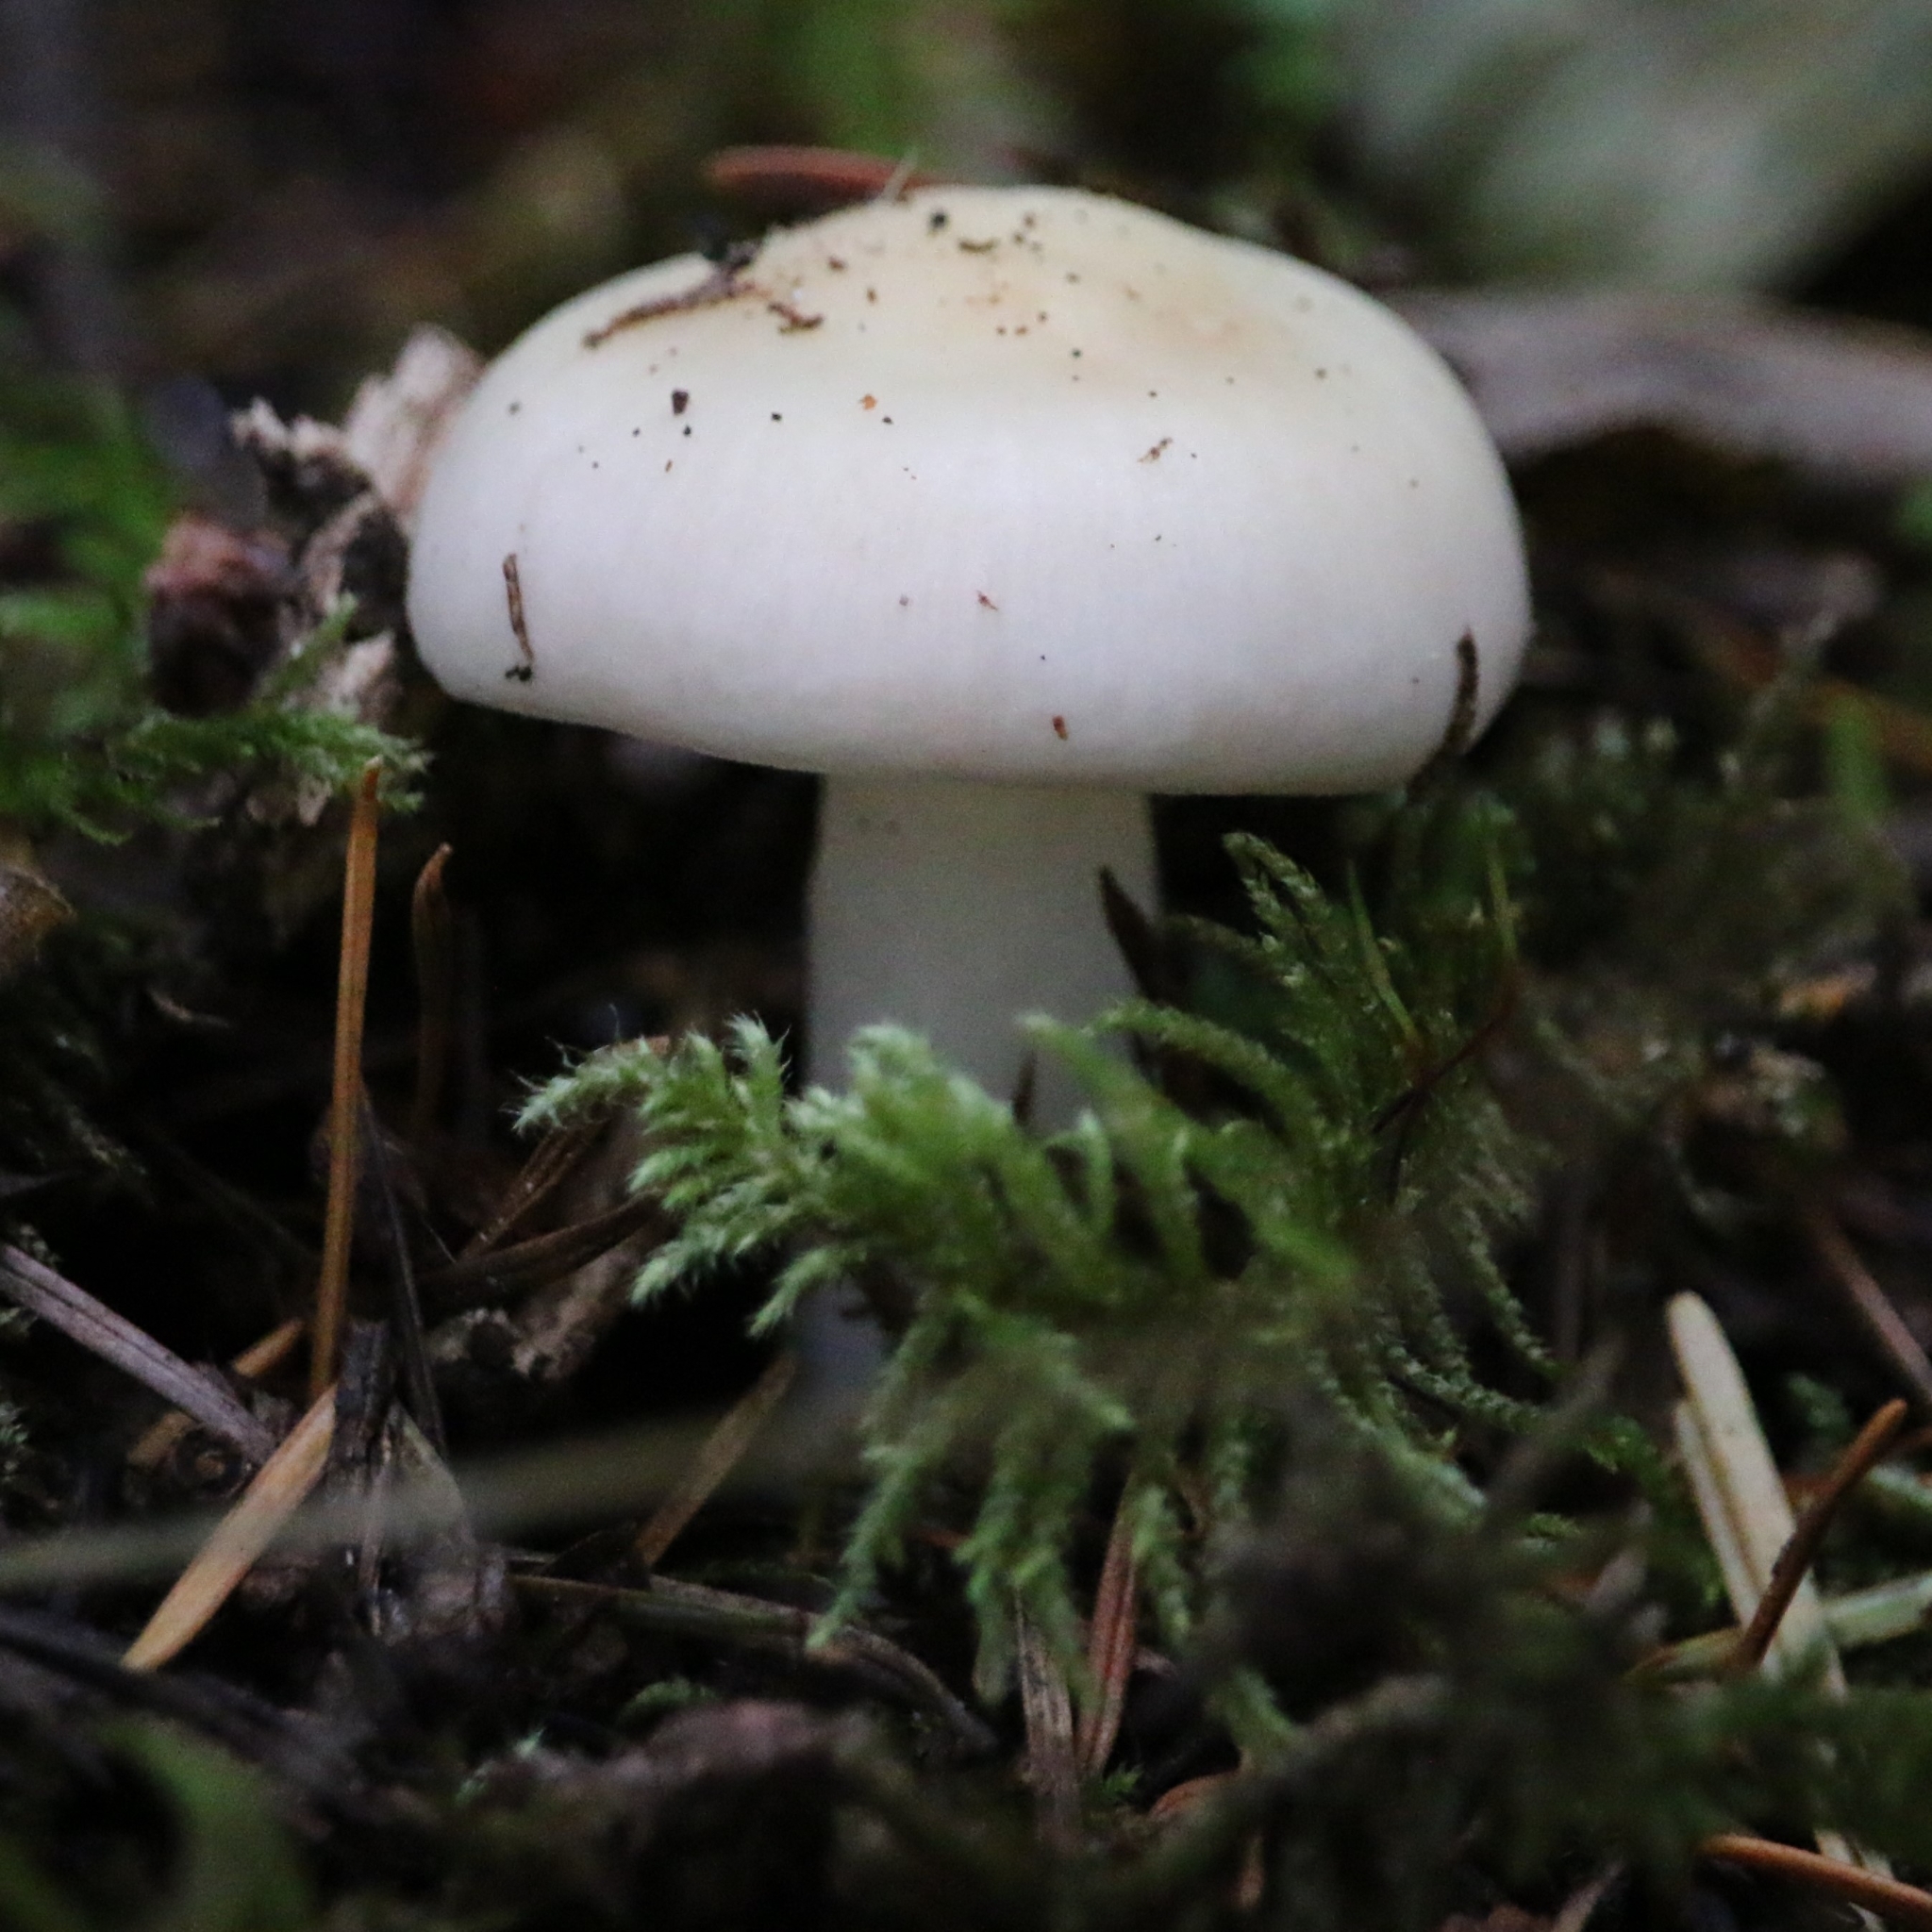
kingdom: Fungi
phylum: Basidiomycota
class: Agaricomycetes
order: Agaricales
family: Hygrophoraceae
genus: Hygrophorus
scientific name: Hygrophorus eburneus
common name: Ivory wax-cap
